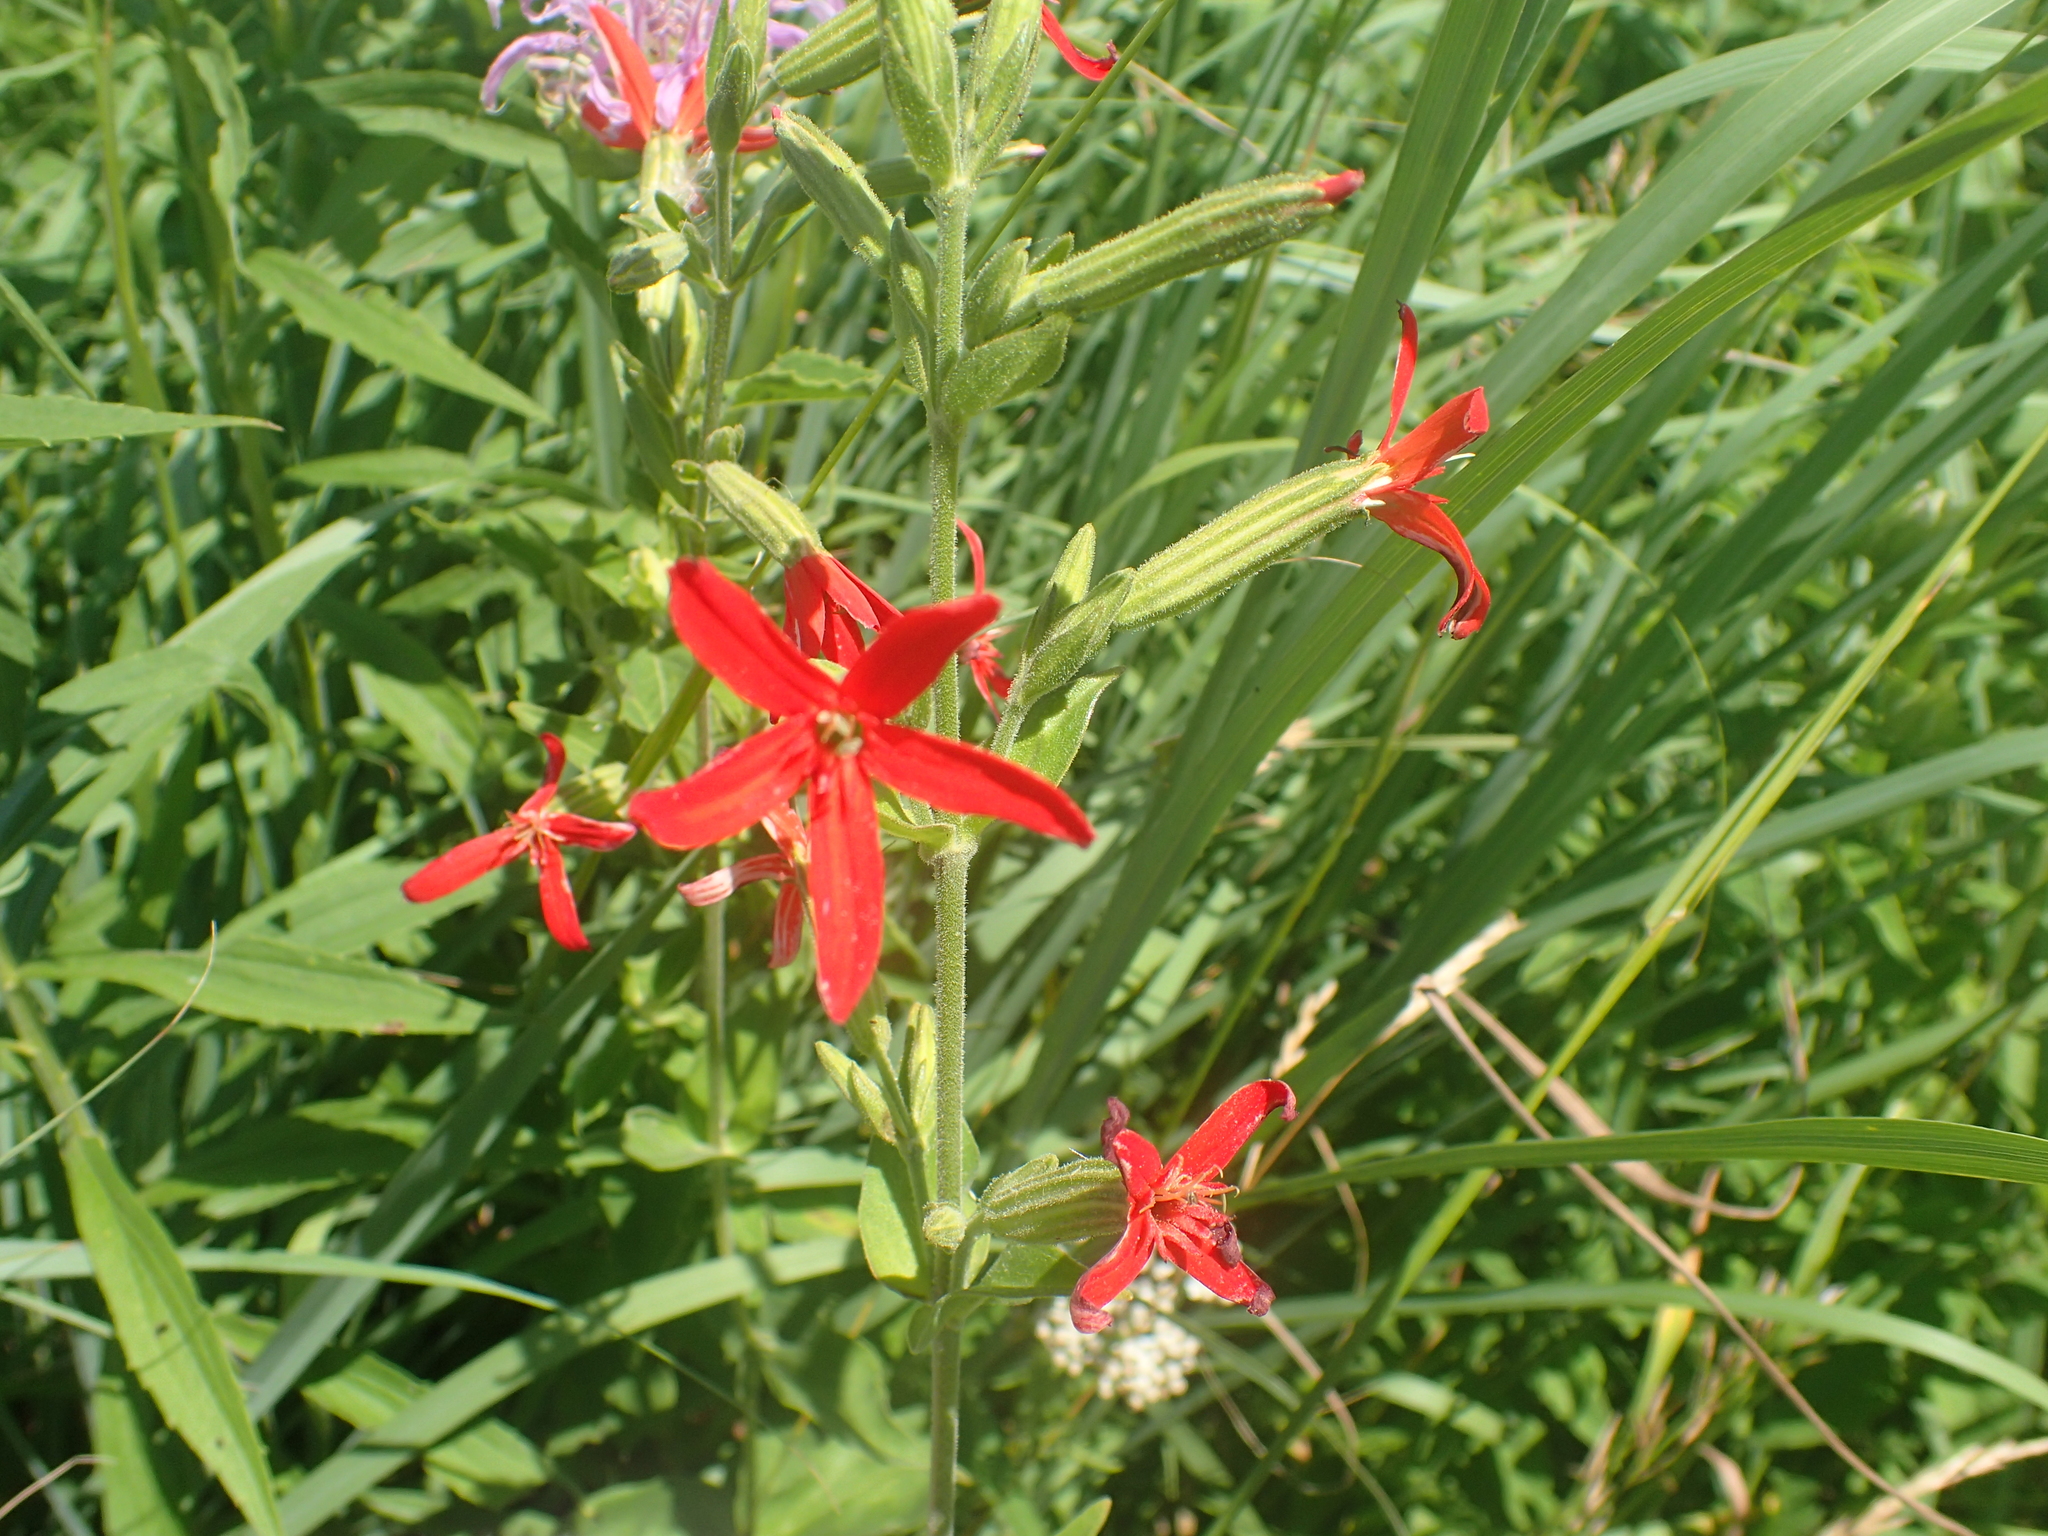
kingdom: Plantae
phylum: Tracheophyta
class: Magnoliopsida
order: Caryophyllales
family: Caryophyllaceae
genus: Silene
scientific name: Silene regia
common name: Royal catchfly
